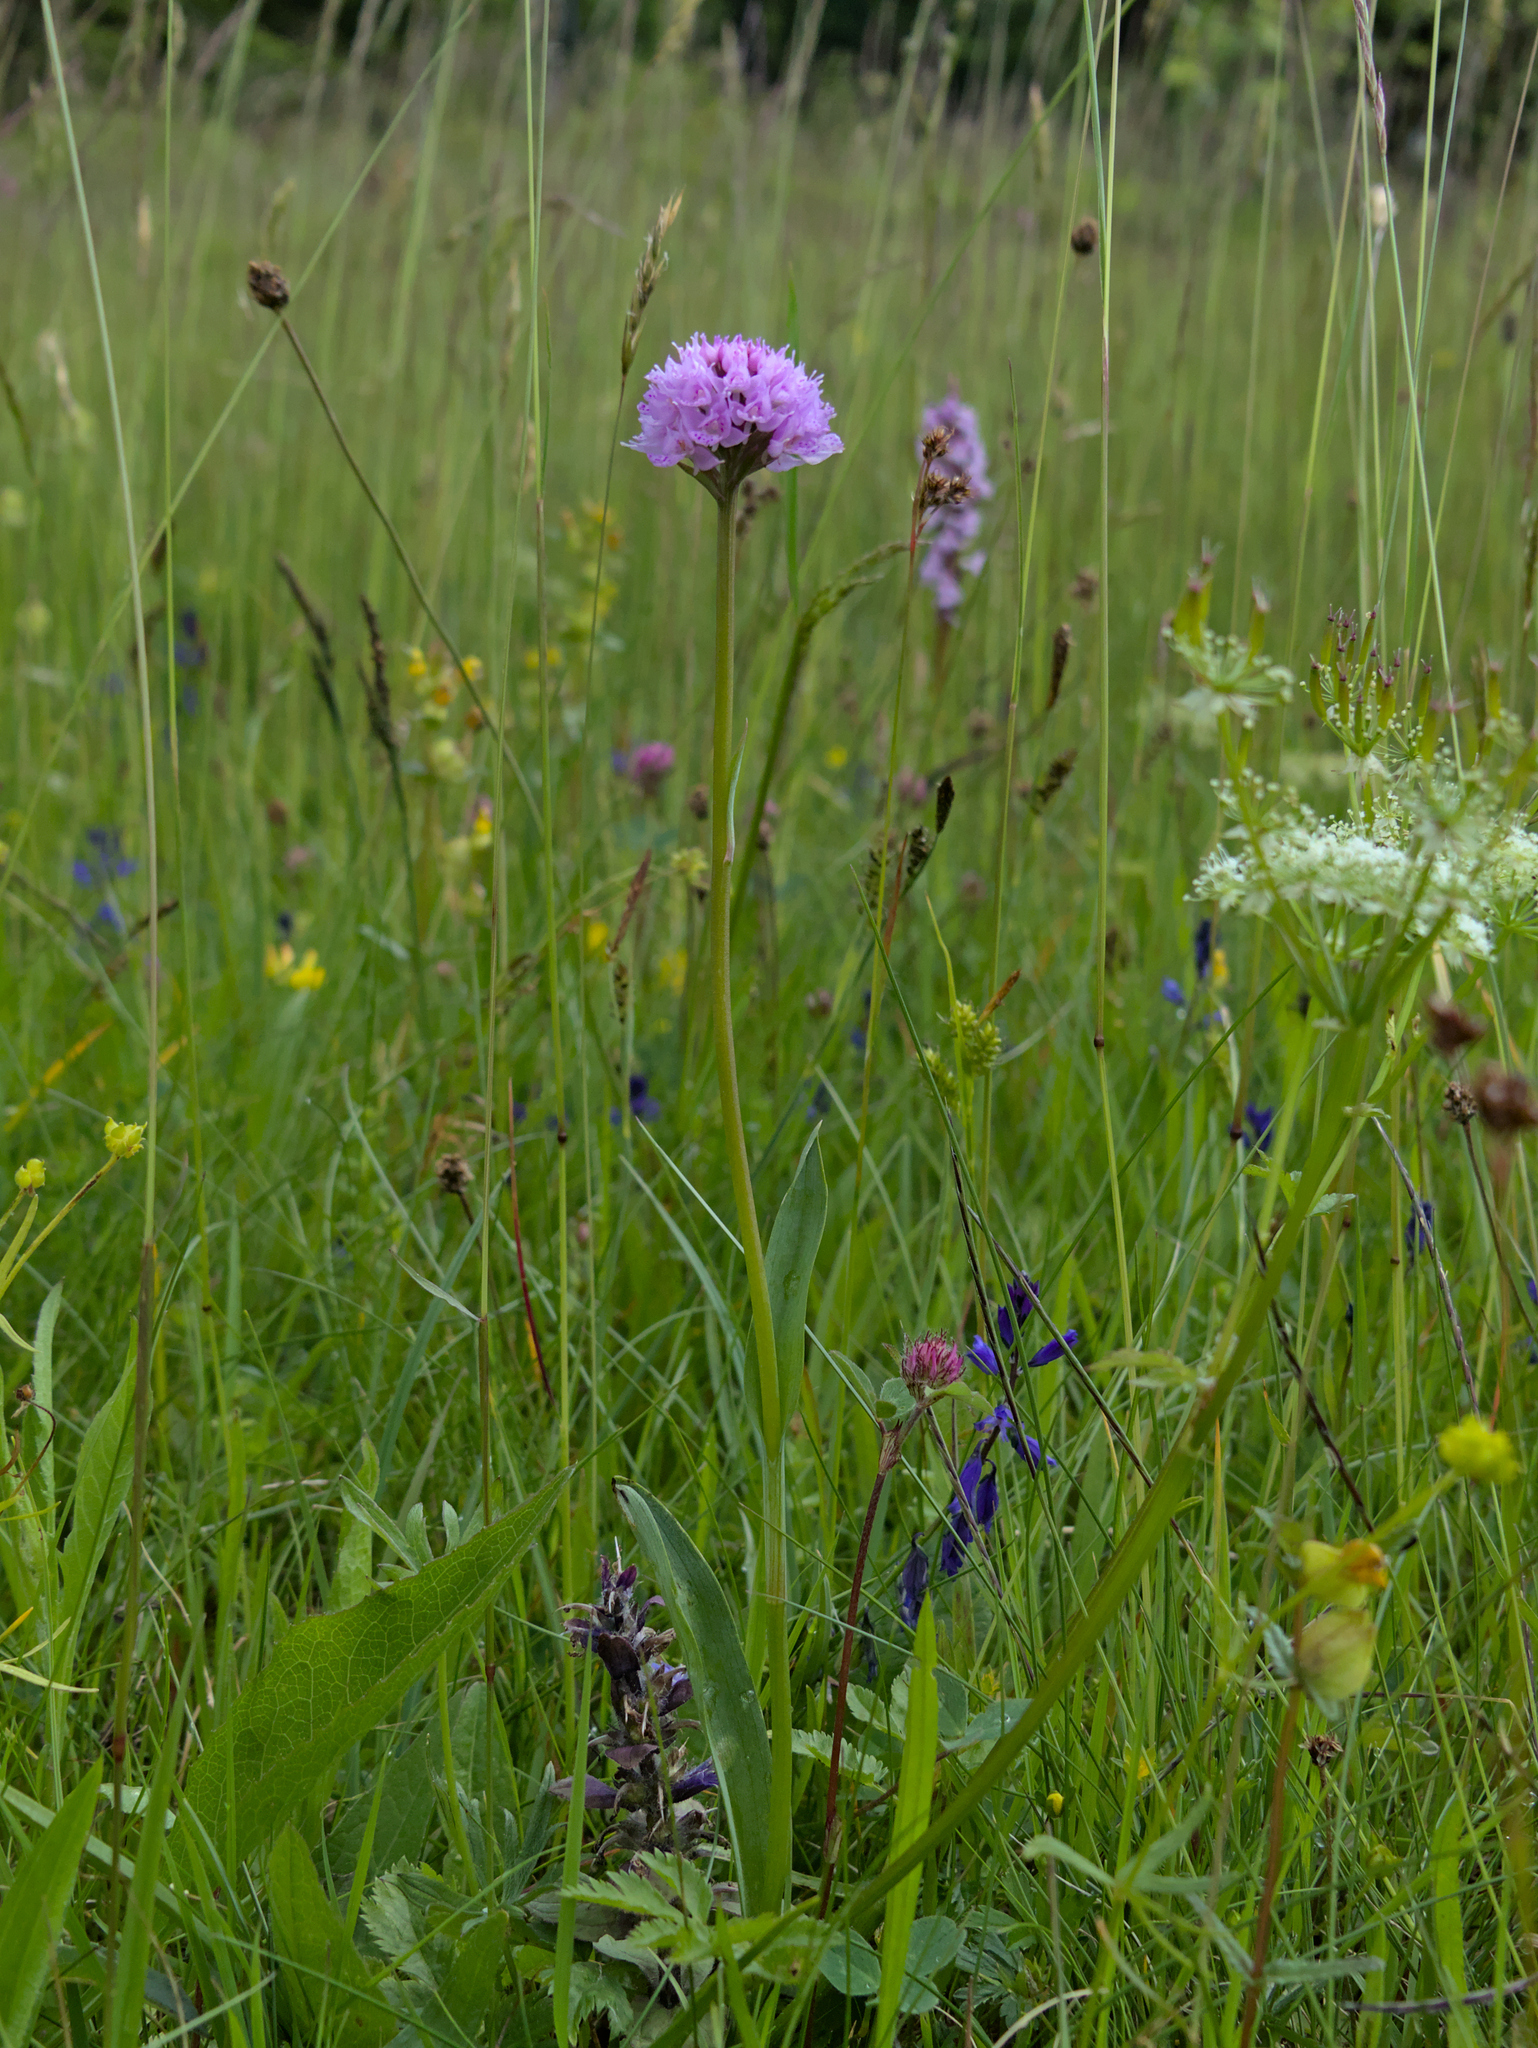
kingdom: Plantae
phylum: Tracheophyta
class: Liliopsida
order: Asparagales
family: Orchidaceae
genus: Traunsteinera
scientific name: Traunsteinera globosa
